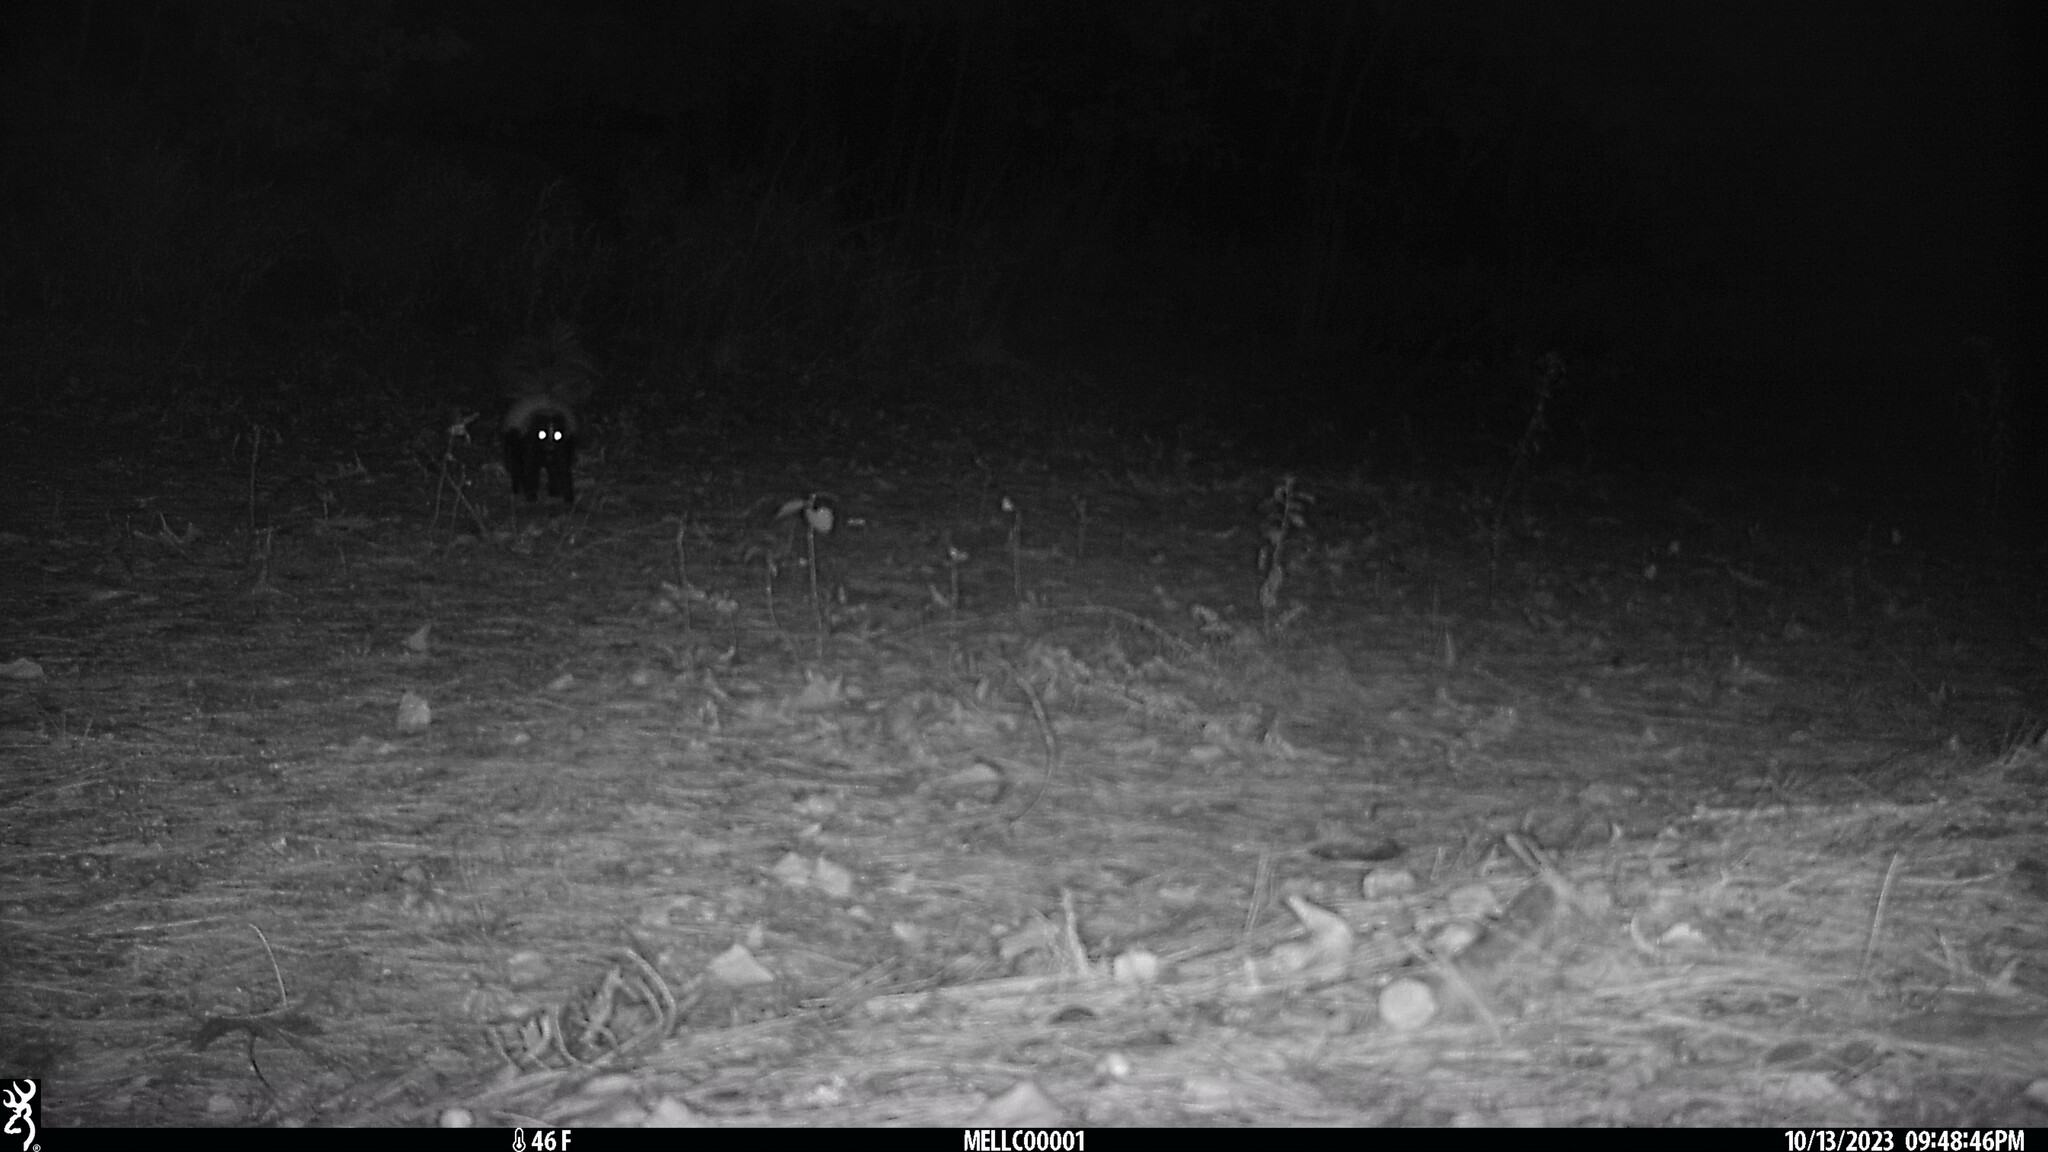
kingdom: Animalia
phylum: Chordata
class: Mammalia
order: Carnivora
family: Mephitidae
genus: Mephitis
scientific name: Mephitis mephitis
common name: Striped skunk
